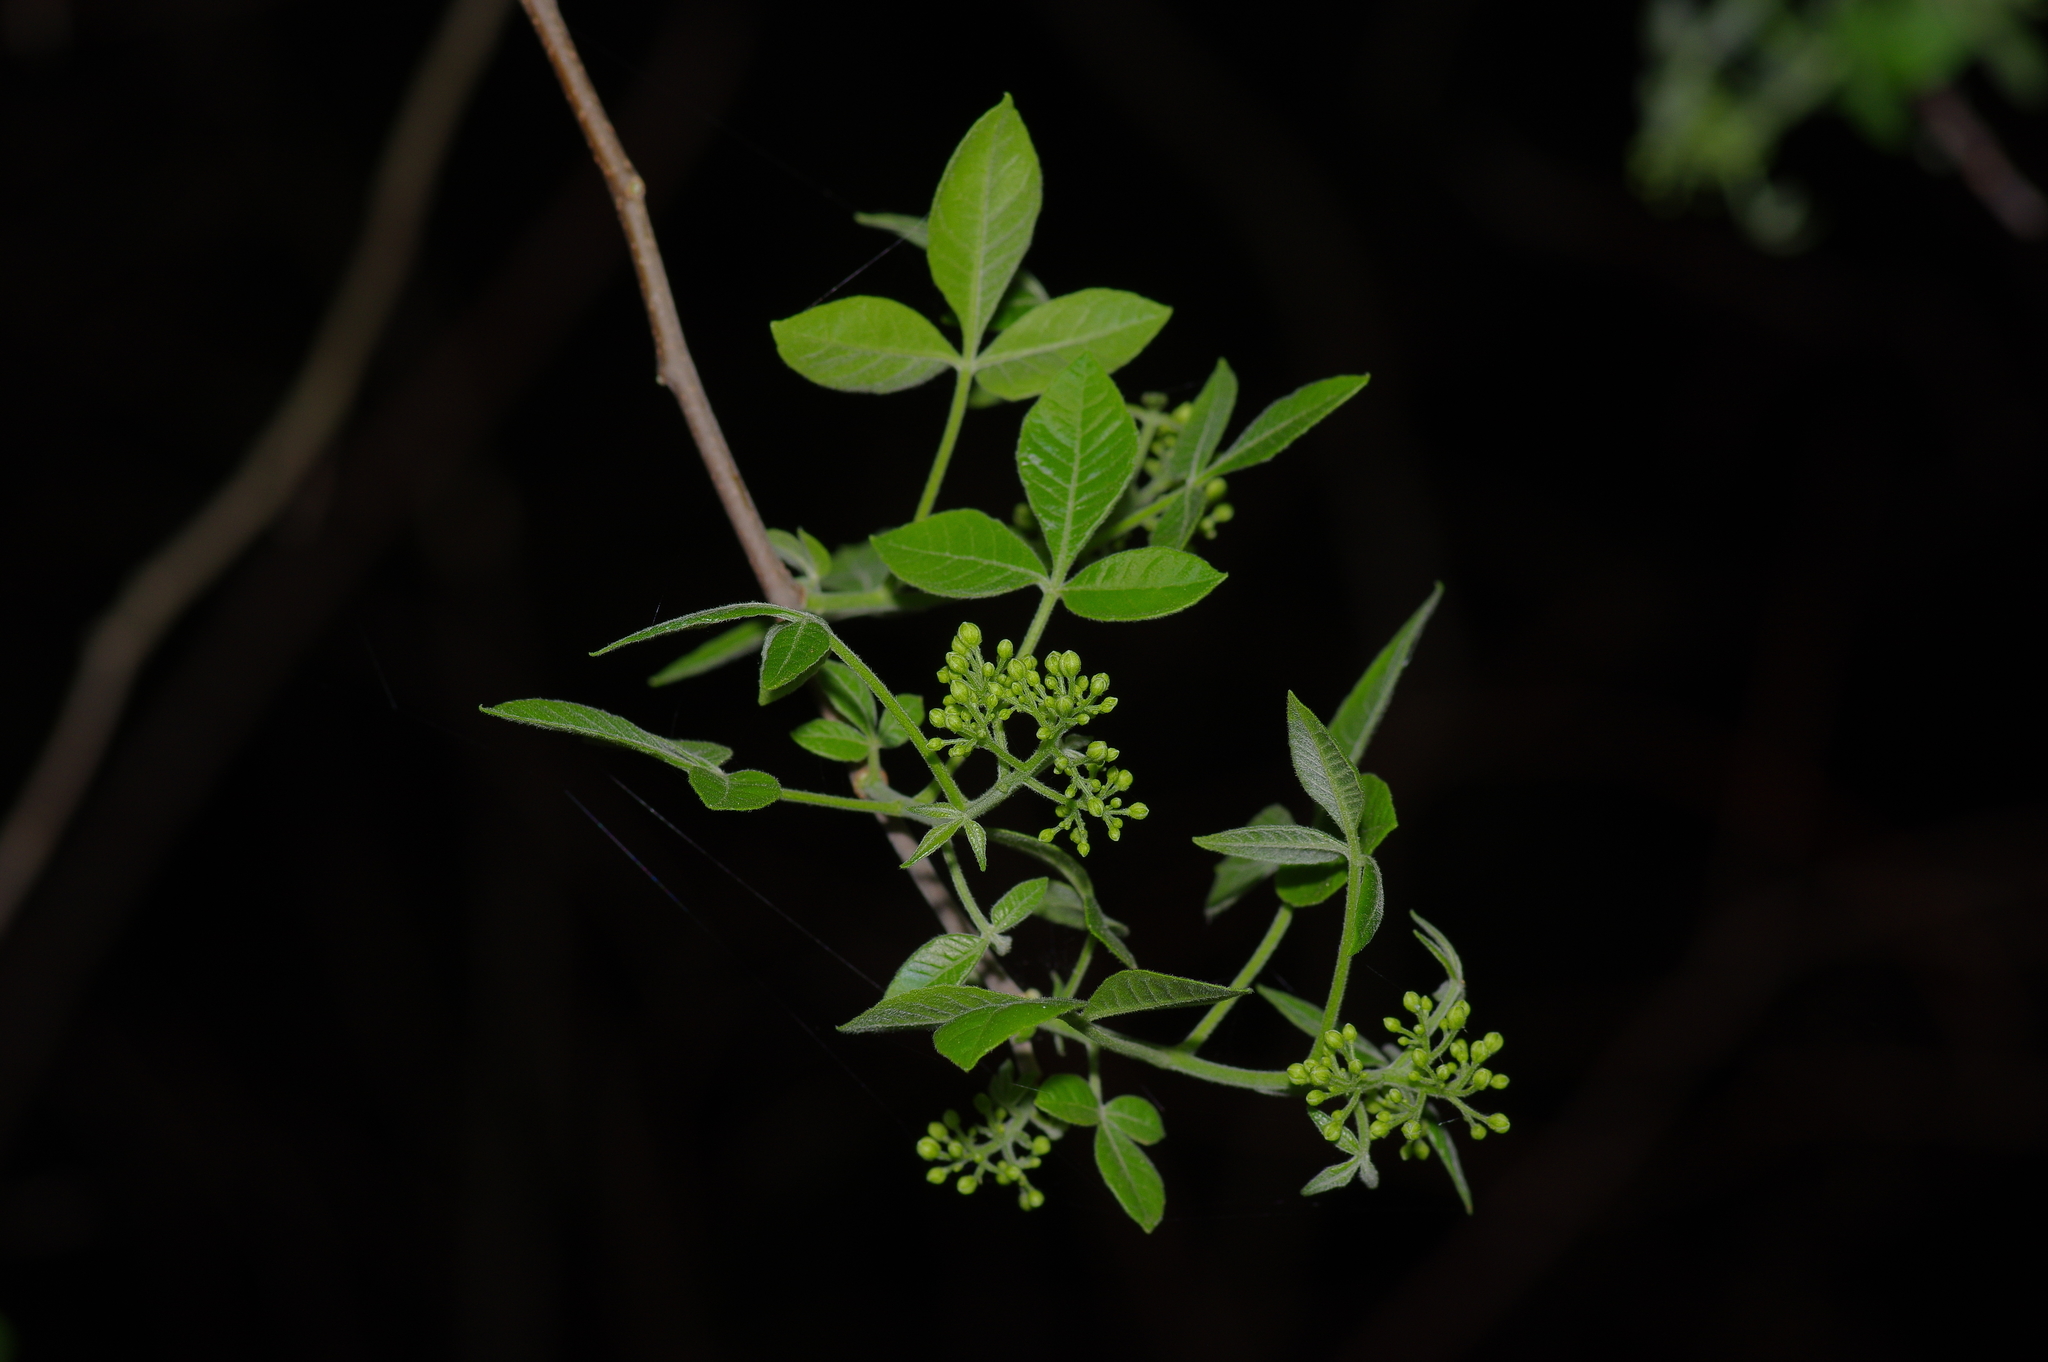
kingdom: Plantae
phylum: Tracheophyta
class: Magnoliopsida
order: Sapindales
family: Rutaceae
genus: Ptelea
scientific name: Ptelea trifoliata
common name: Common hop-tree
